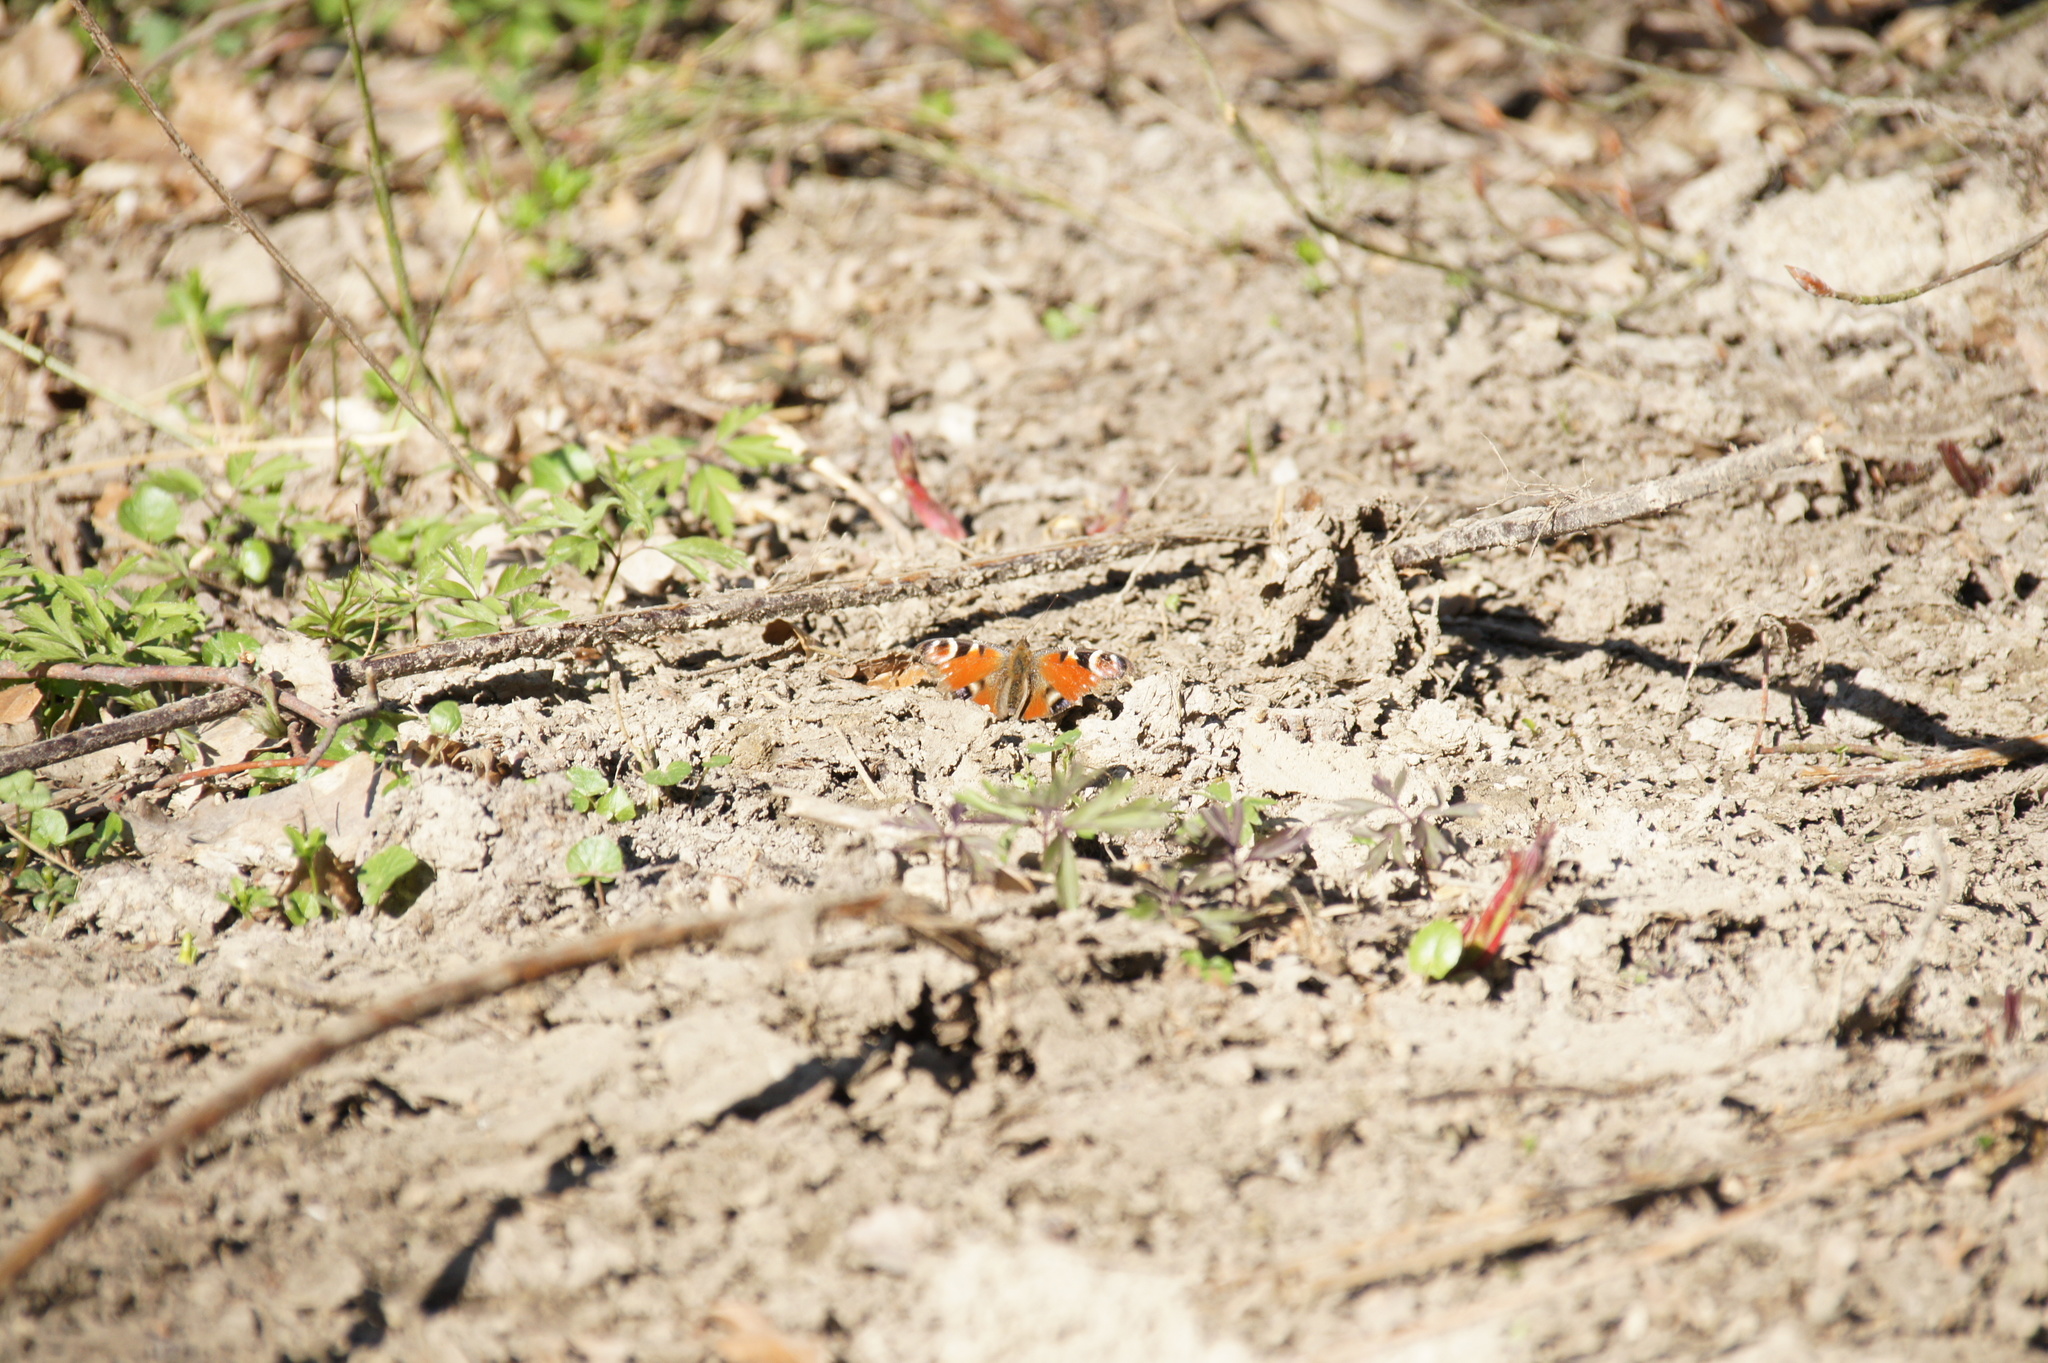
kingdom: Animalia
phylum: Arthropoda
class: Insecta
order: Lepidoptera
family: Nymphalidae
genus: Aglais
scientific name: Aglais io
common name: Peacock
